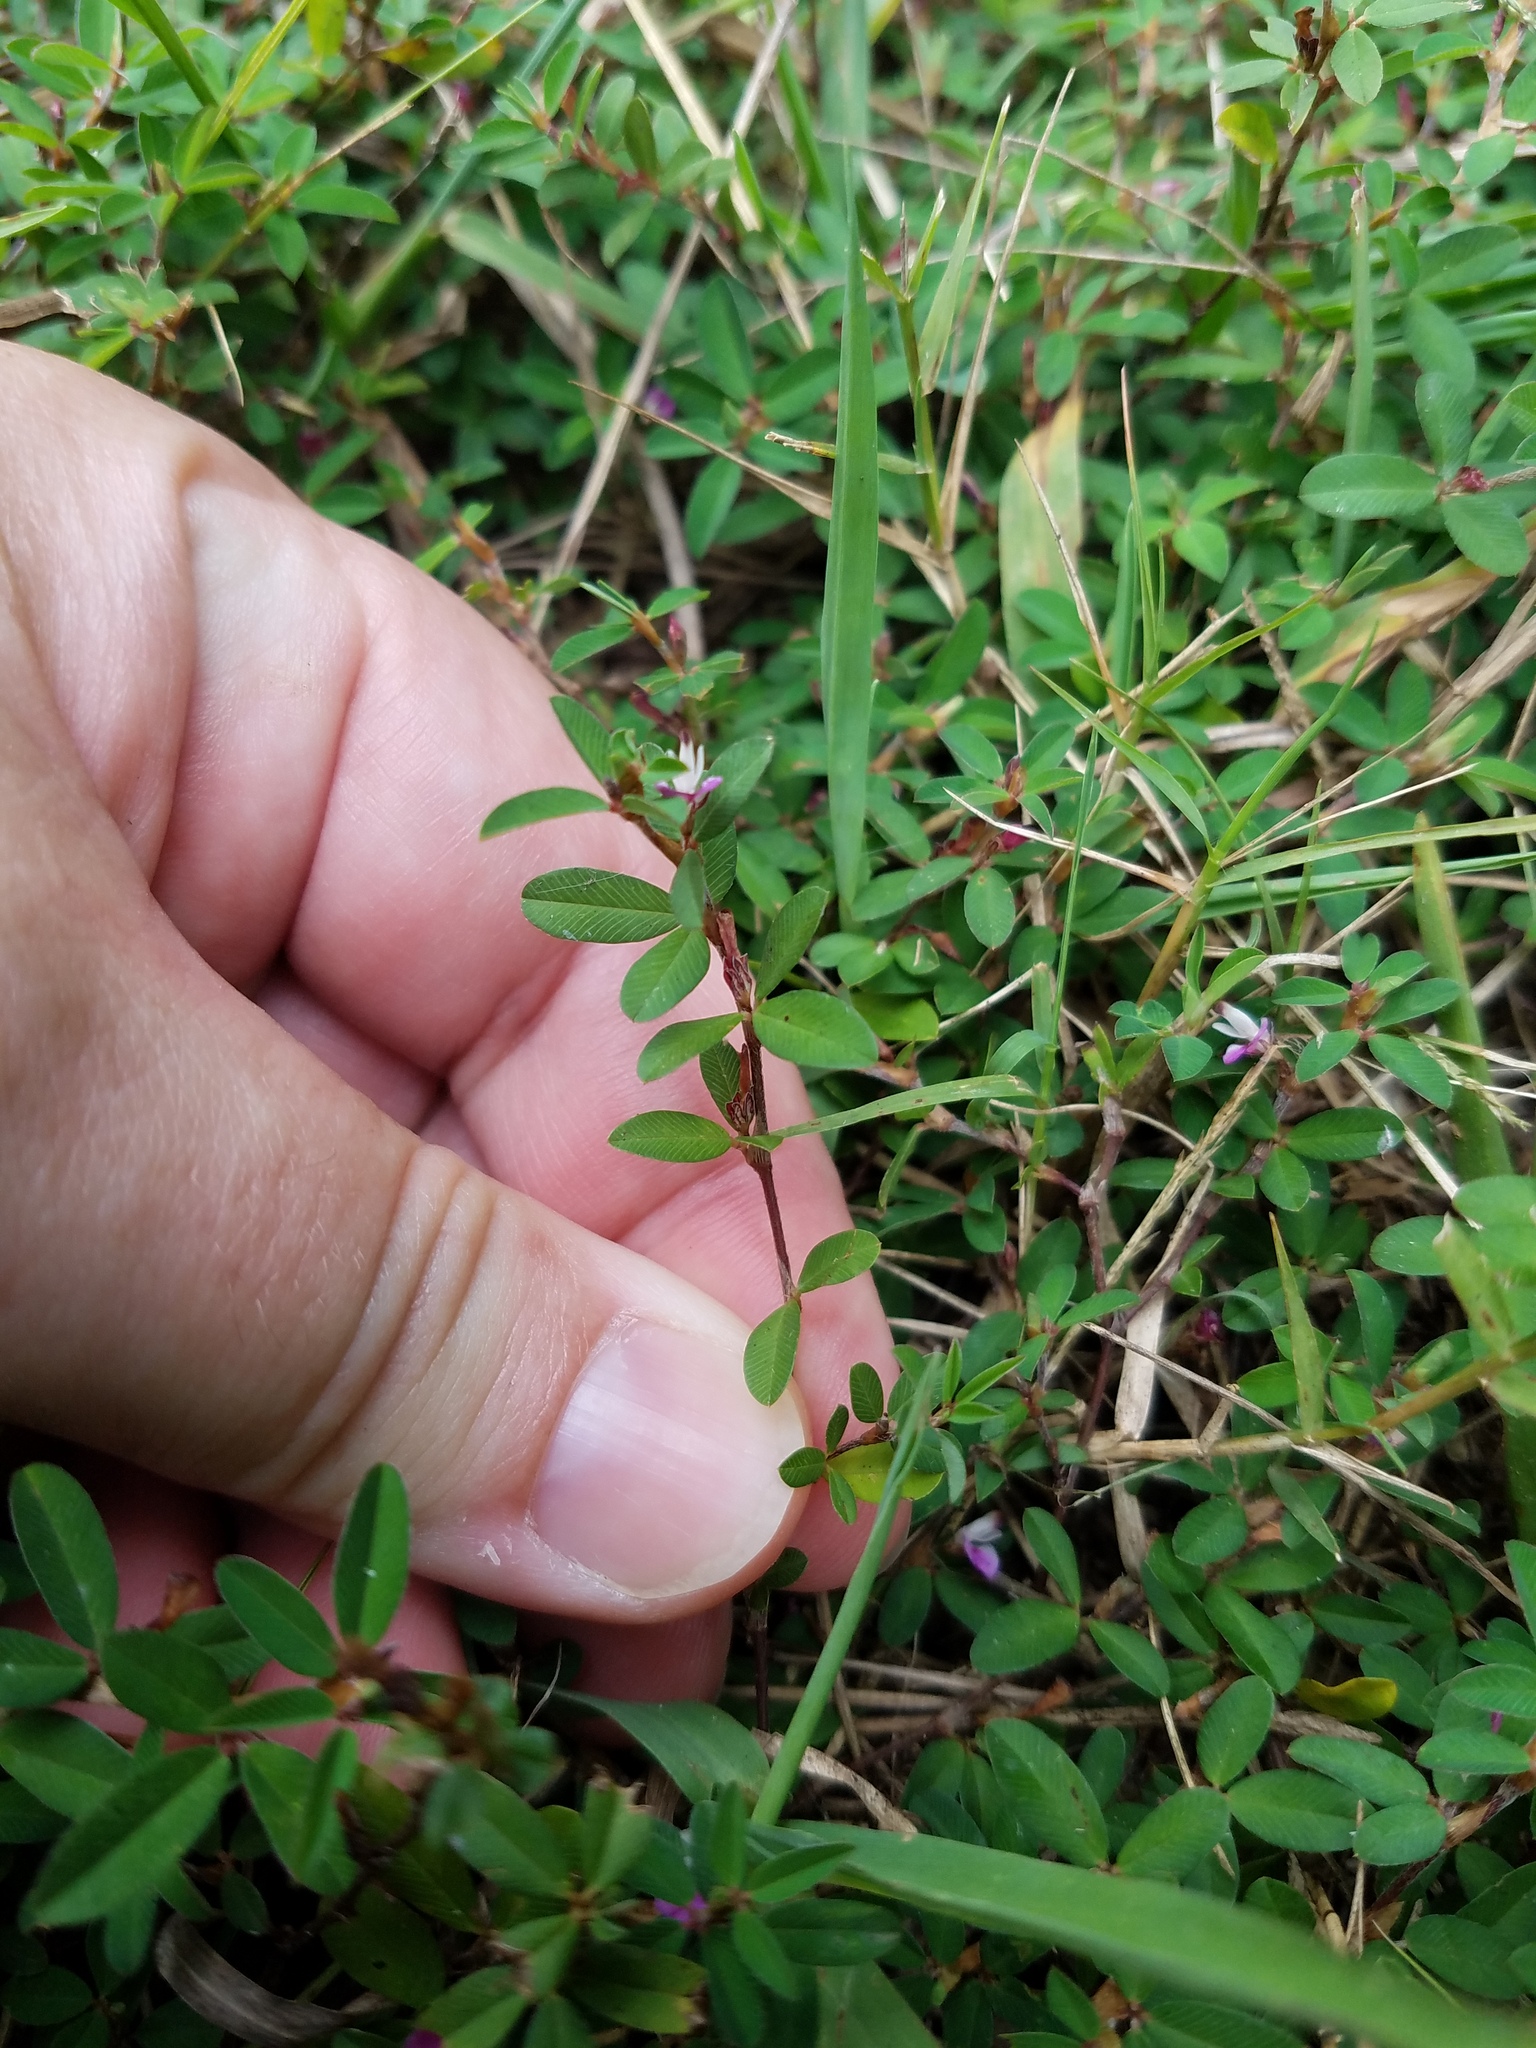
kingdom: Plantae
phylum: Tracheophyta
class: Magnoliopsida
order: Fabales
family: Fabaceae
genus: Kummerowia
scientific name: Kummerowia striata
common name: Japanese clover
